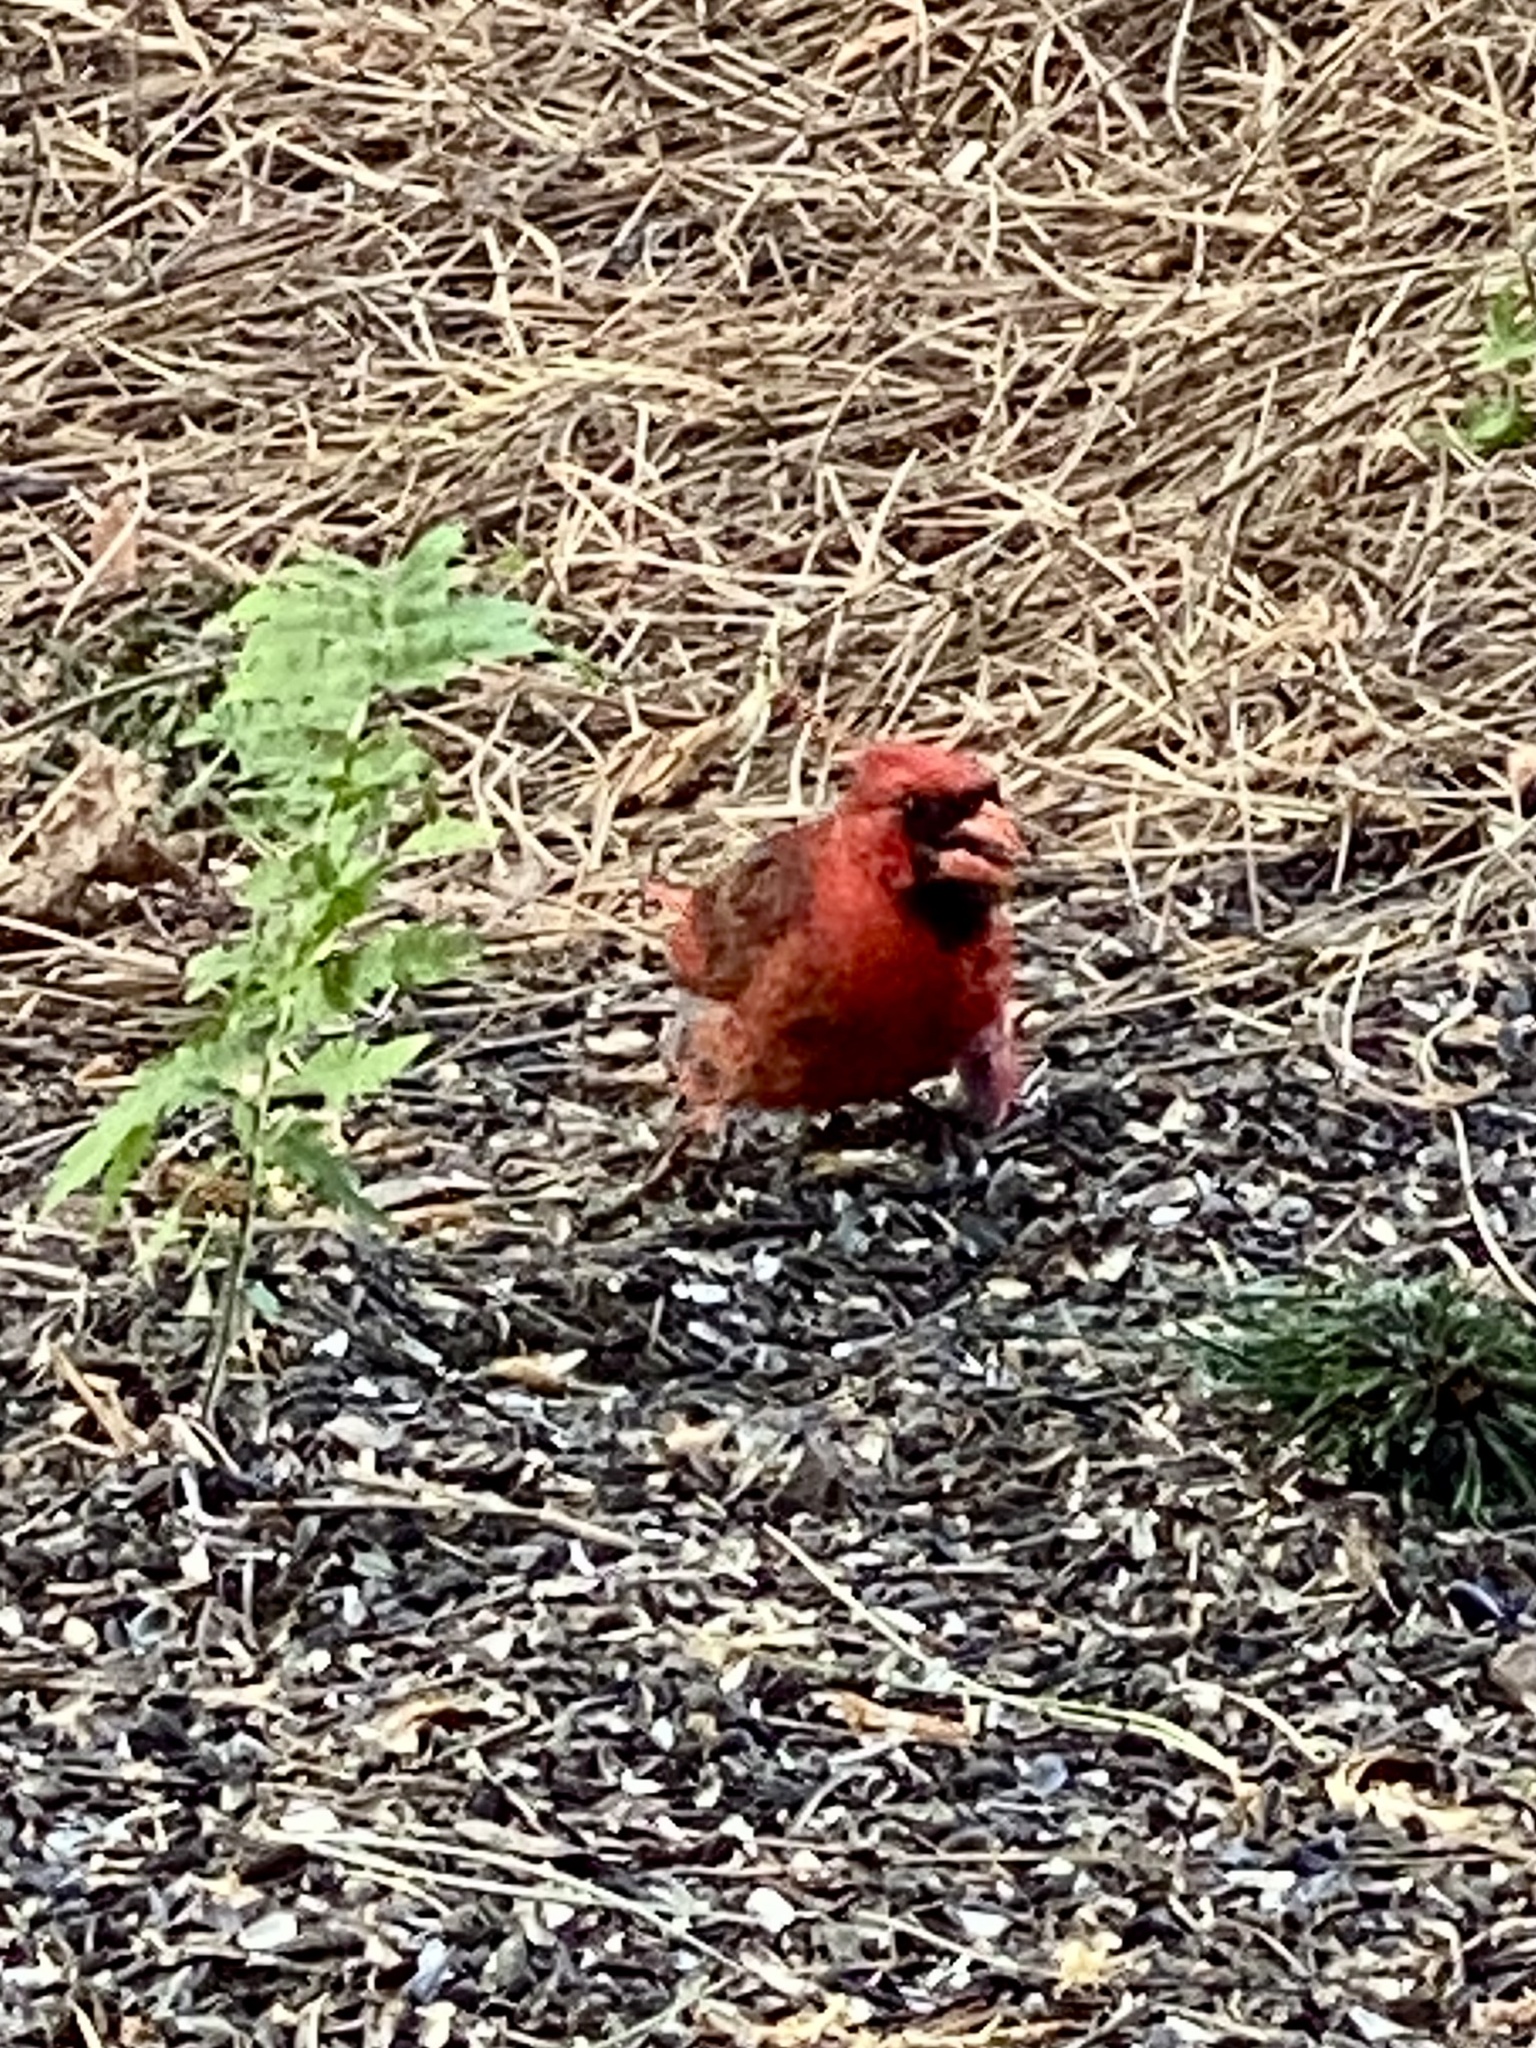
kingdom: Animalia
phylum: Chordata
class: Aves
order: Passeriformes
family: Cardinalidae
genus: Cardinalis
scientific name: Cardinalis cardinalis
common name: Northern cardinal
